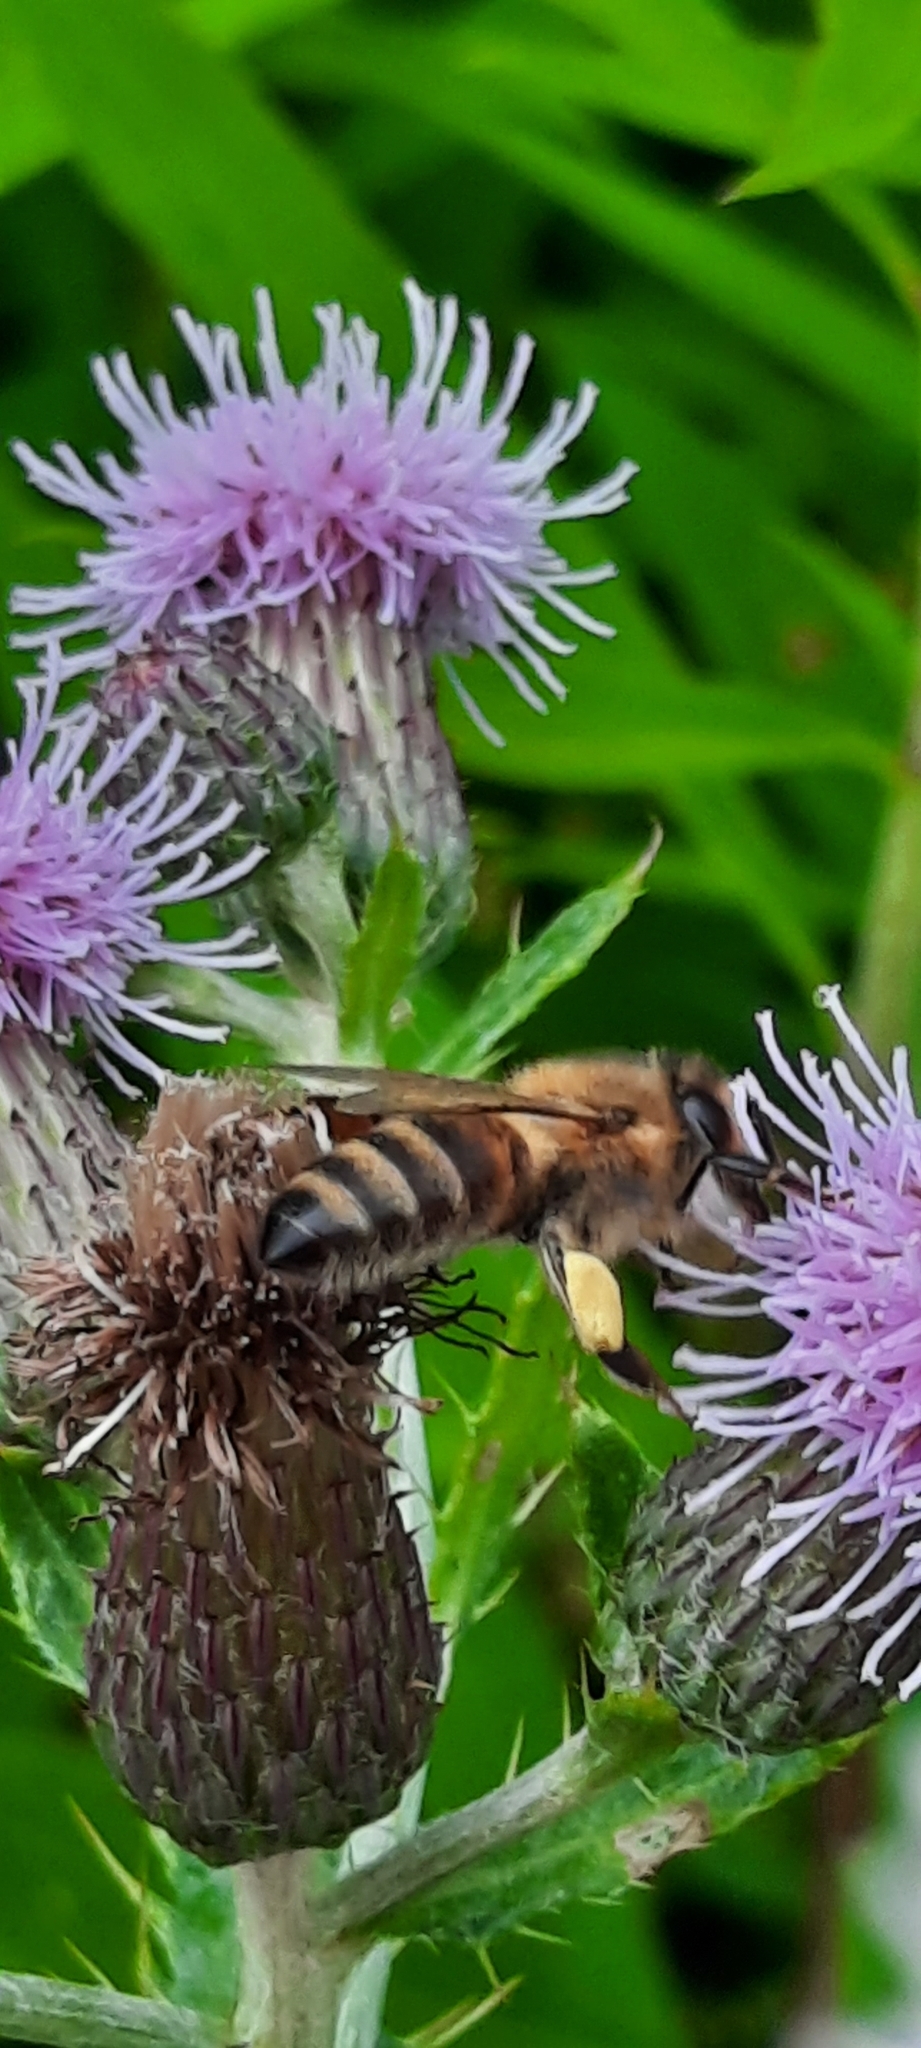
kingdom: Animalia
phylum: Arthropoda
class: Insecta
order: Hymenoptera
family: Apidae
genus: Apis
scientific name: Apis mellifera
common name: Honey bee
